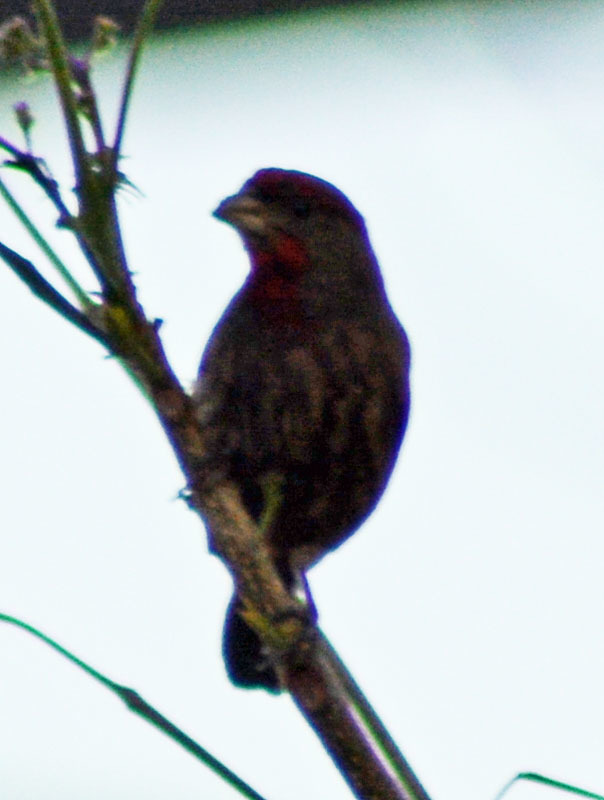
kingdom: Animalia
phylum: Chordata
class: Aves
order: Passeriformes
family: Fringillidae
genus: Haemorhous
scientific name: Haemorhous mexicanus
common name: House finch
